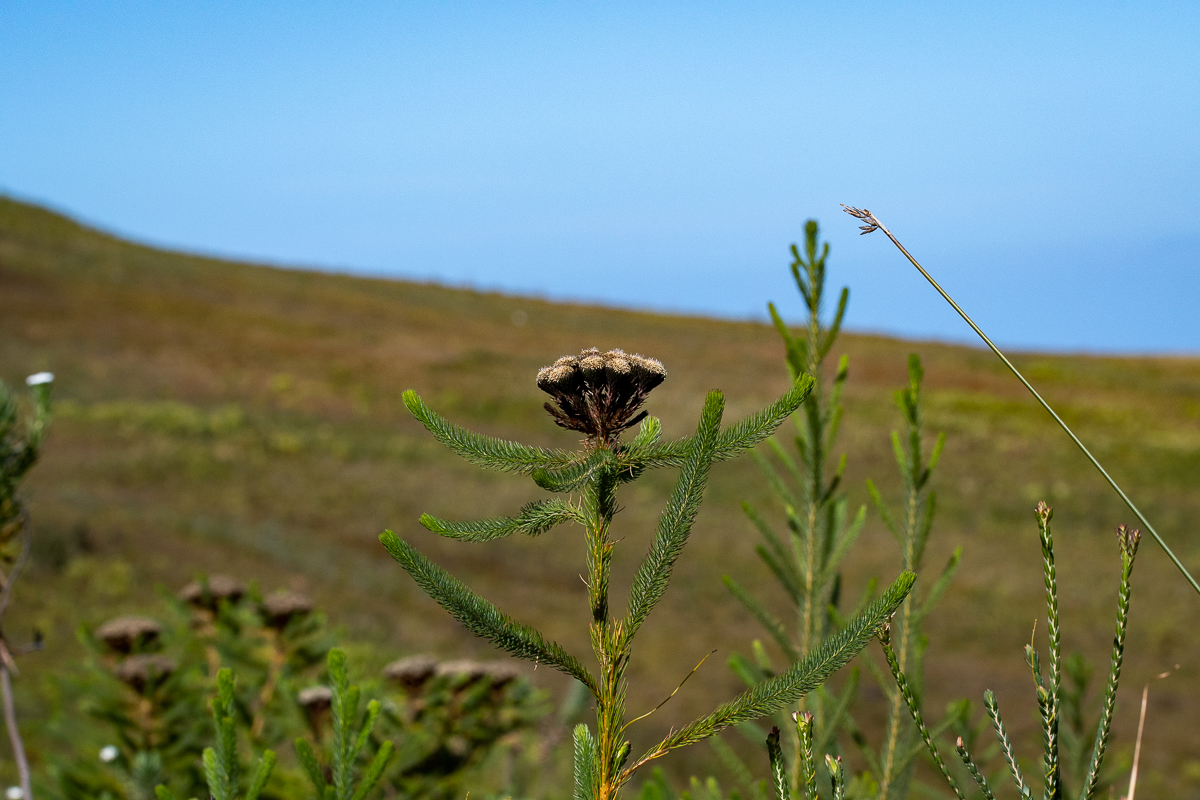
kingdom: Plantae
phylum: Tracheophyta
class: Magnoliopsida
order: Bruniales
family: Bruniaceae
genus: Berzelia
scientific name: Berzelia albiflora
